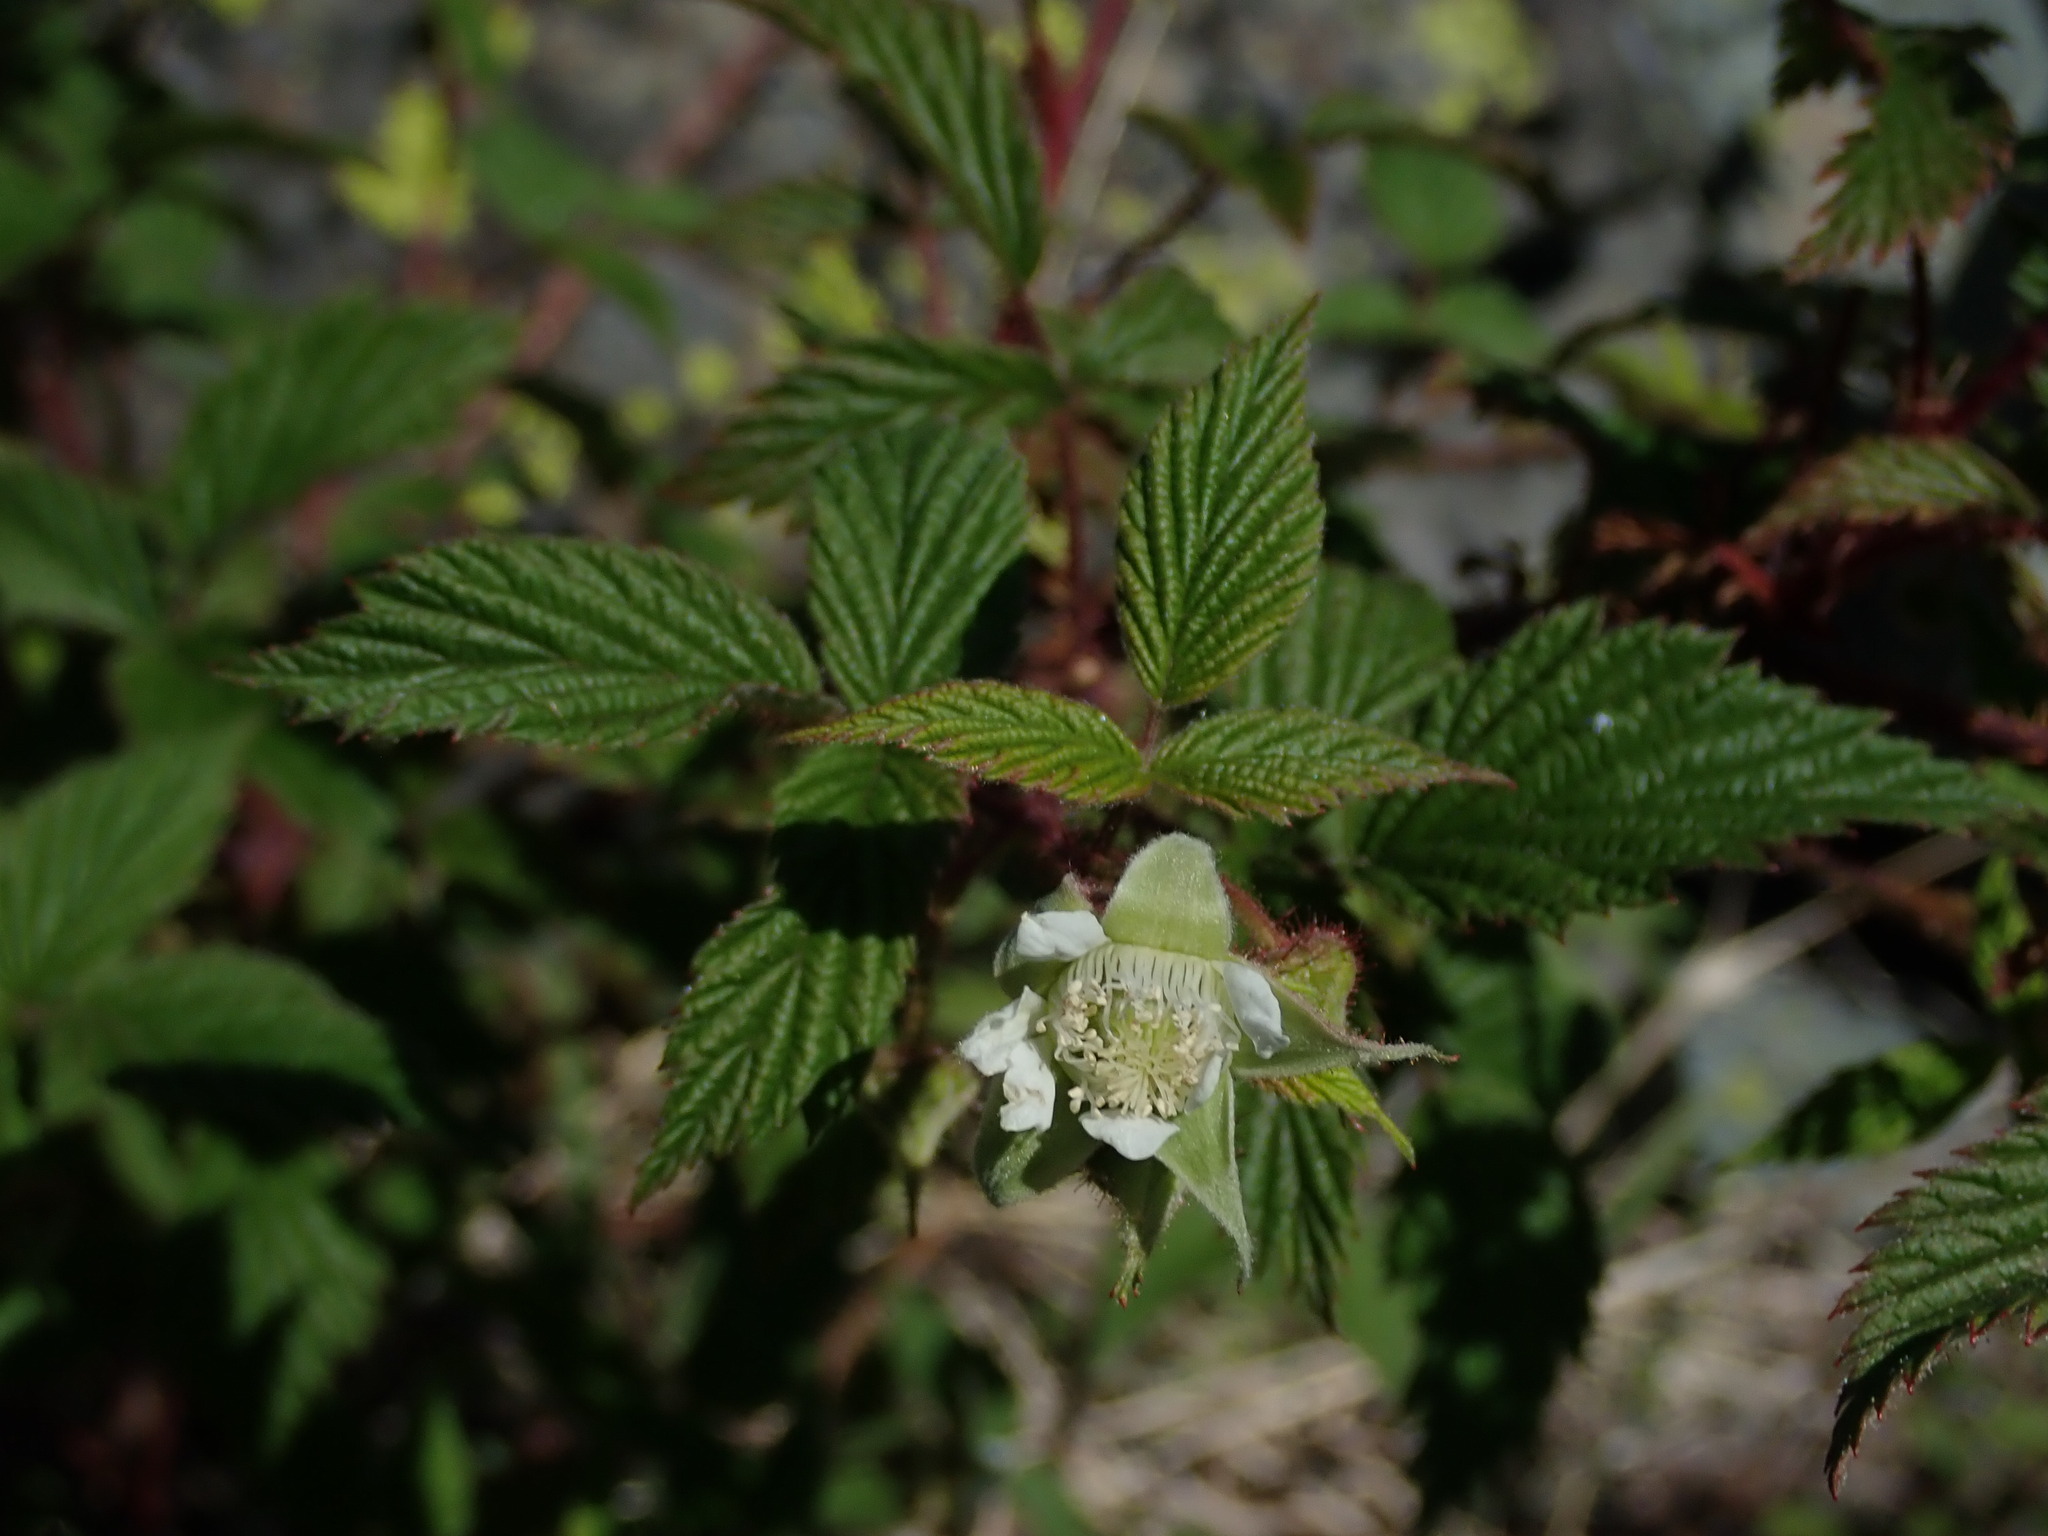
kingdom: Plantae
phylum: Tracheophyta
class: Magnoliopsida
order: Rosales
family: Rosaceae
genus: Rubus
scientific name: Rubus idaeus
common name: Raspberry
